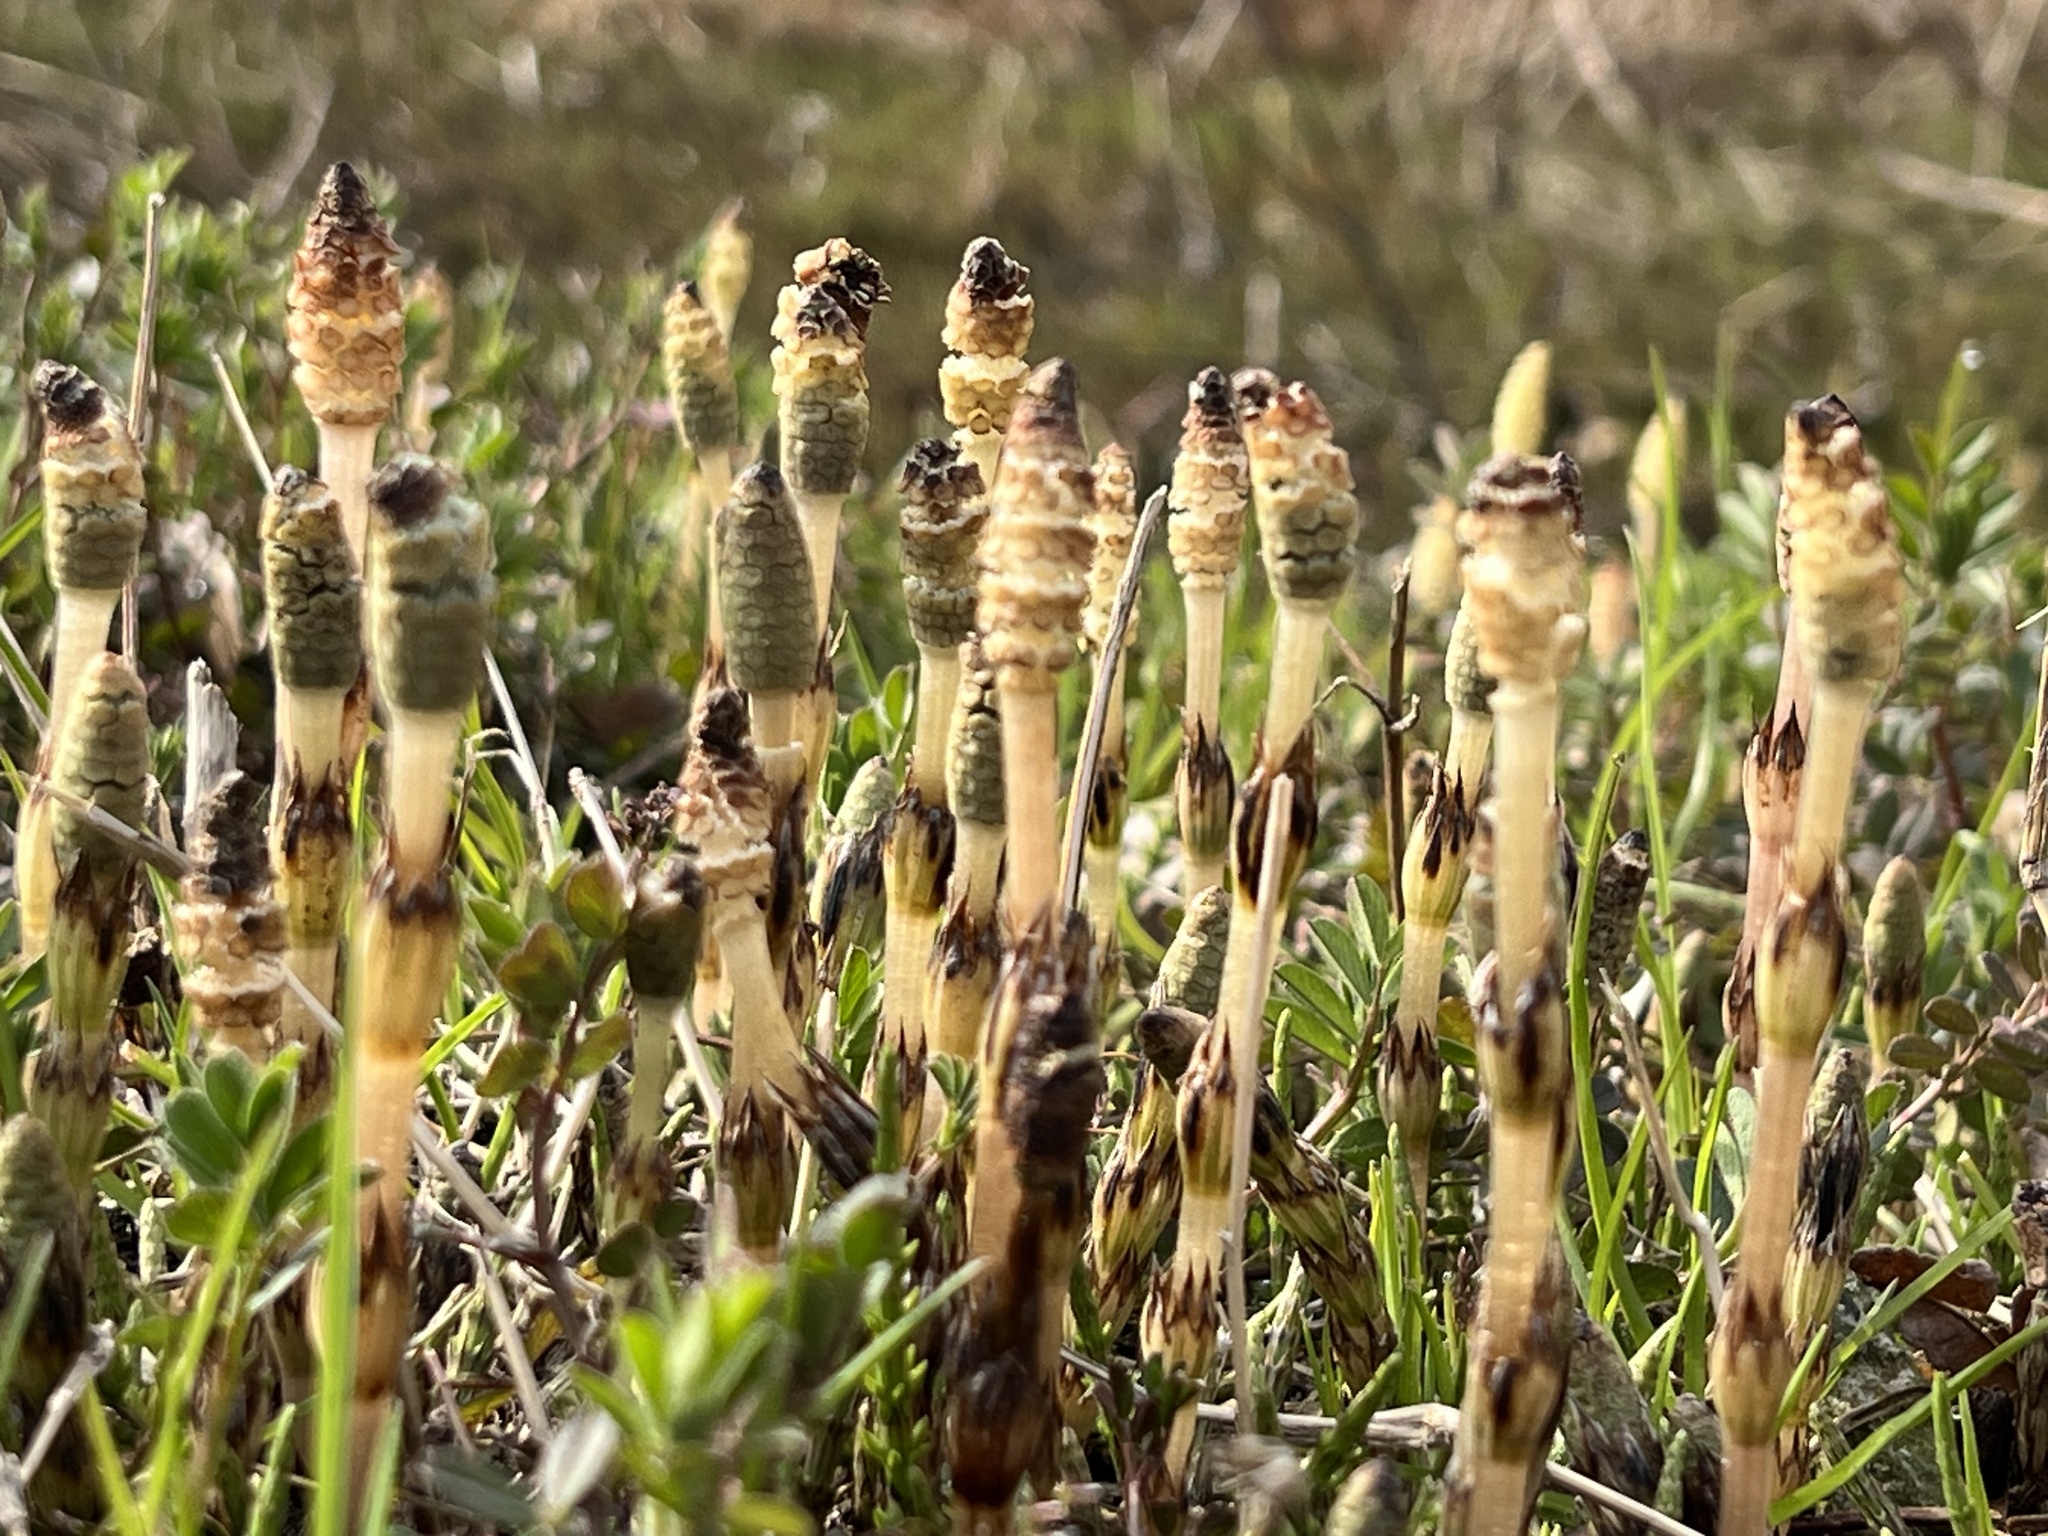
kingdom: Plantae
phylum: Tracheophyta
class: Polypodiopsida
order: Equisetales
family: Equisetaceae
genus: Equisetum
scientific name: Equisetum arvense
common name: Field horsetail
